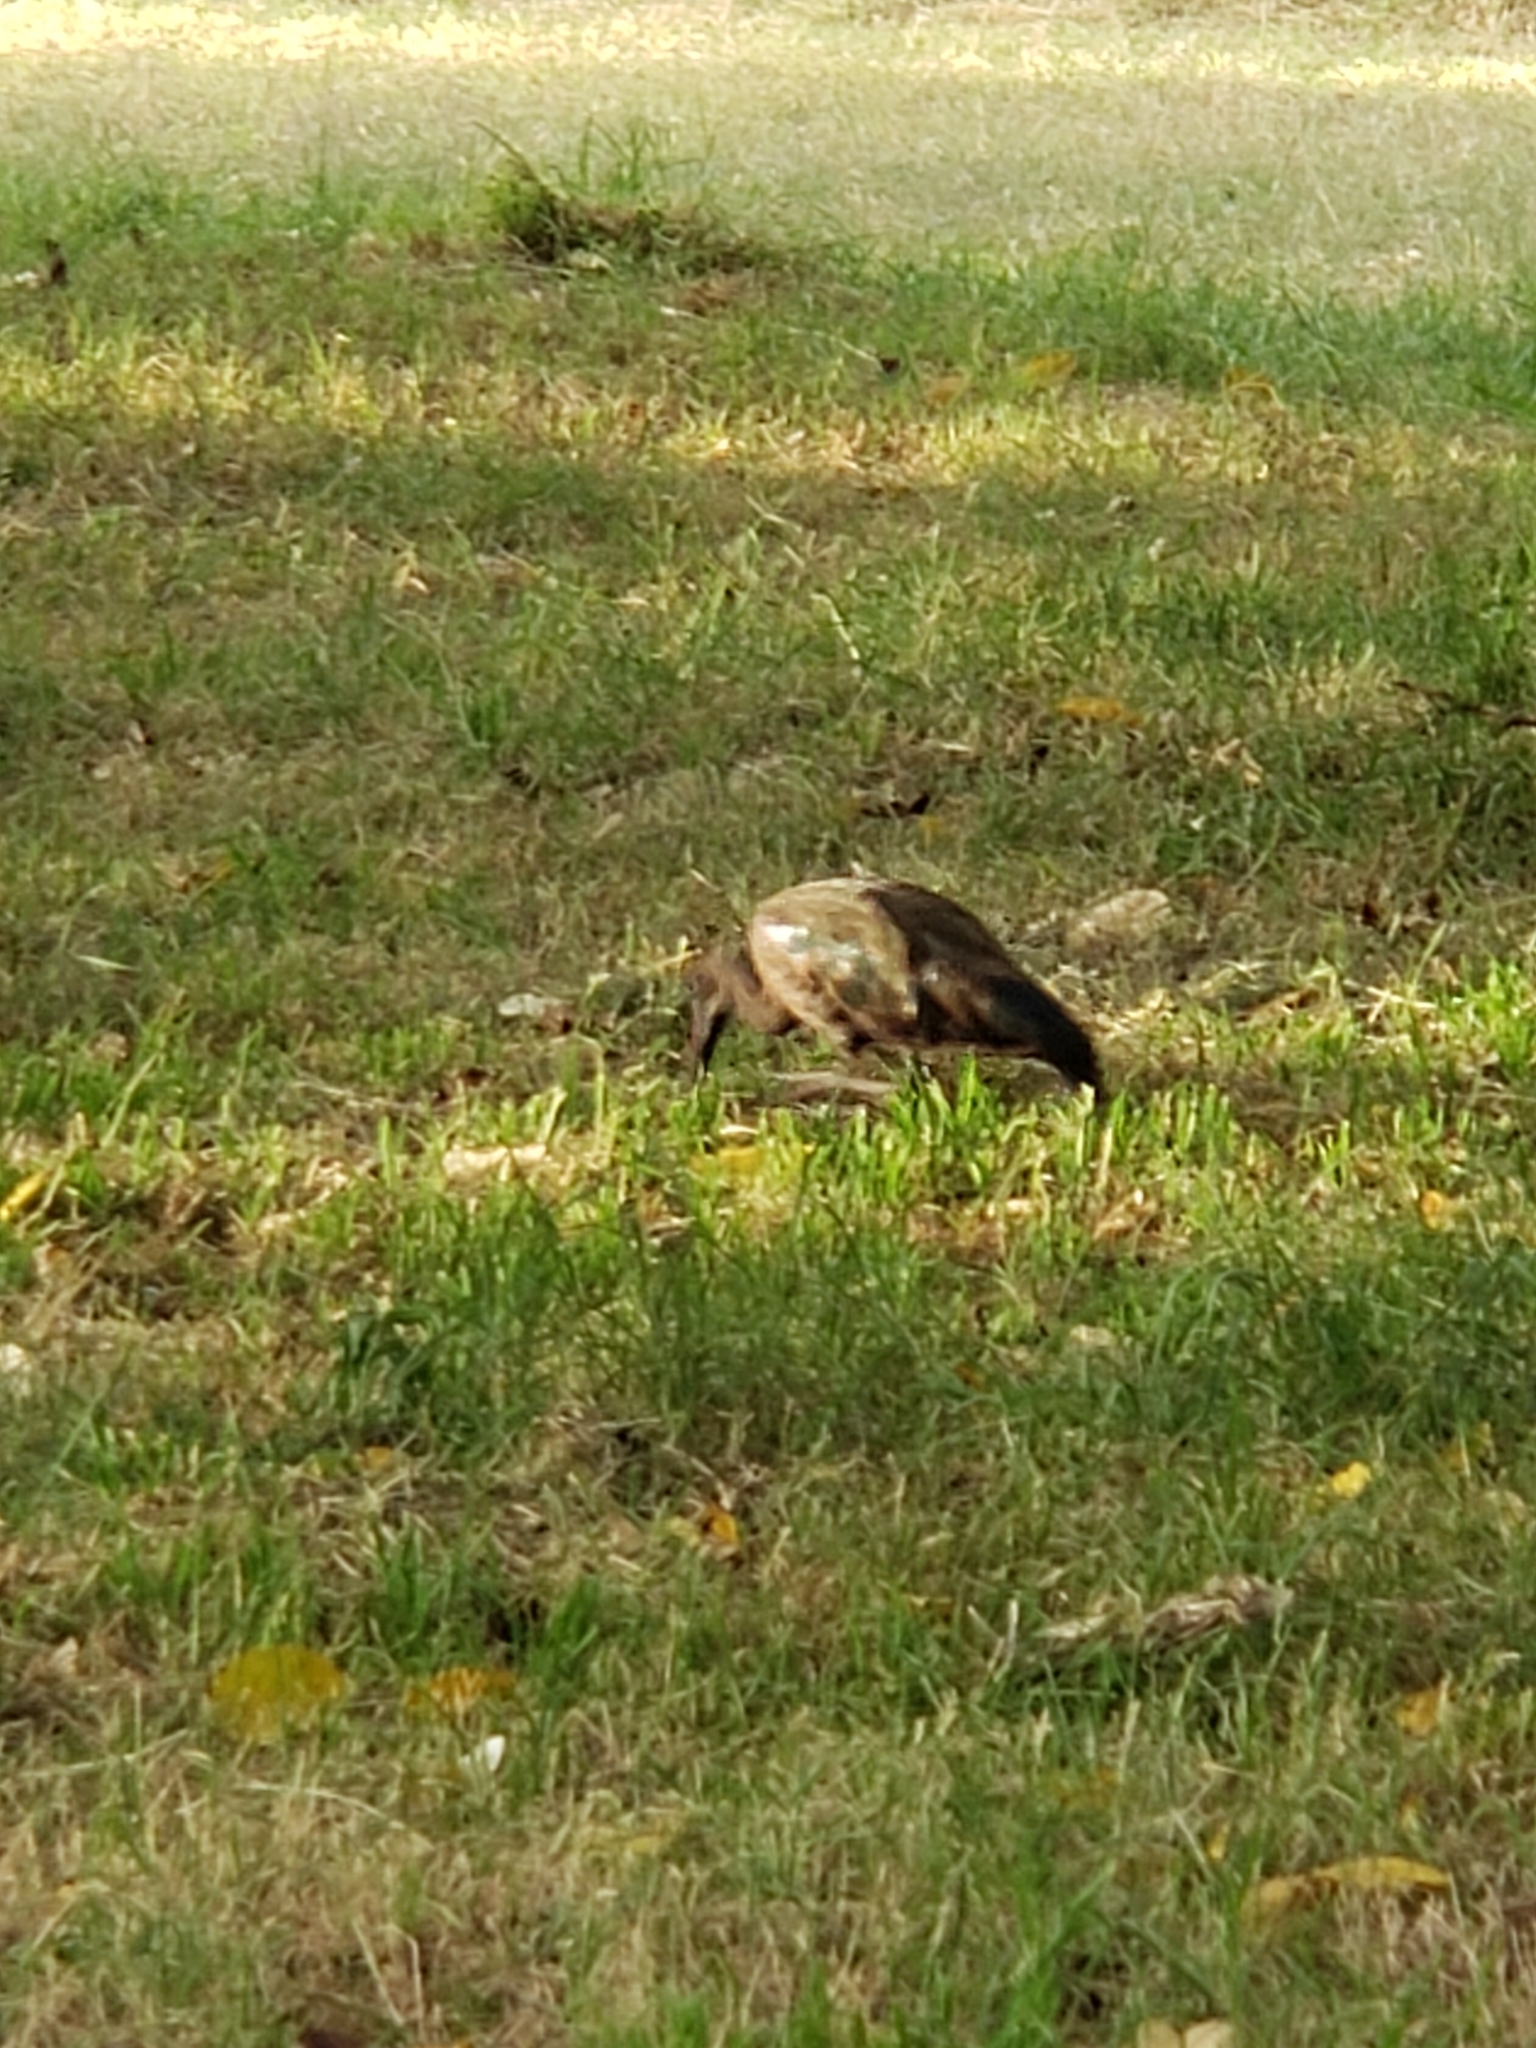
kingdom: Animalia
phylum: Chordata
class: Aves
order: Pelecaniformes
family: Threskiornithidae
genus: Bostrychia
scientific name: Bostrychia hagedash
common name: Hadada ibis
